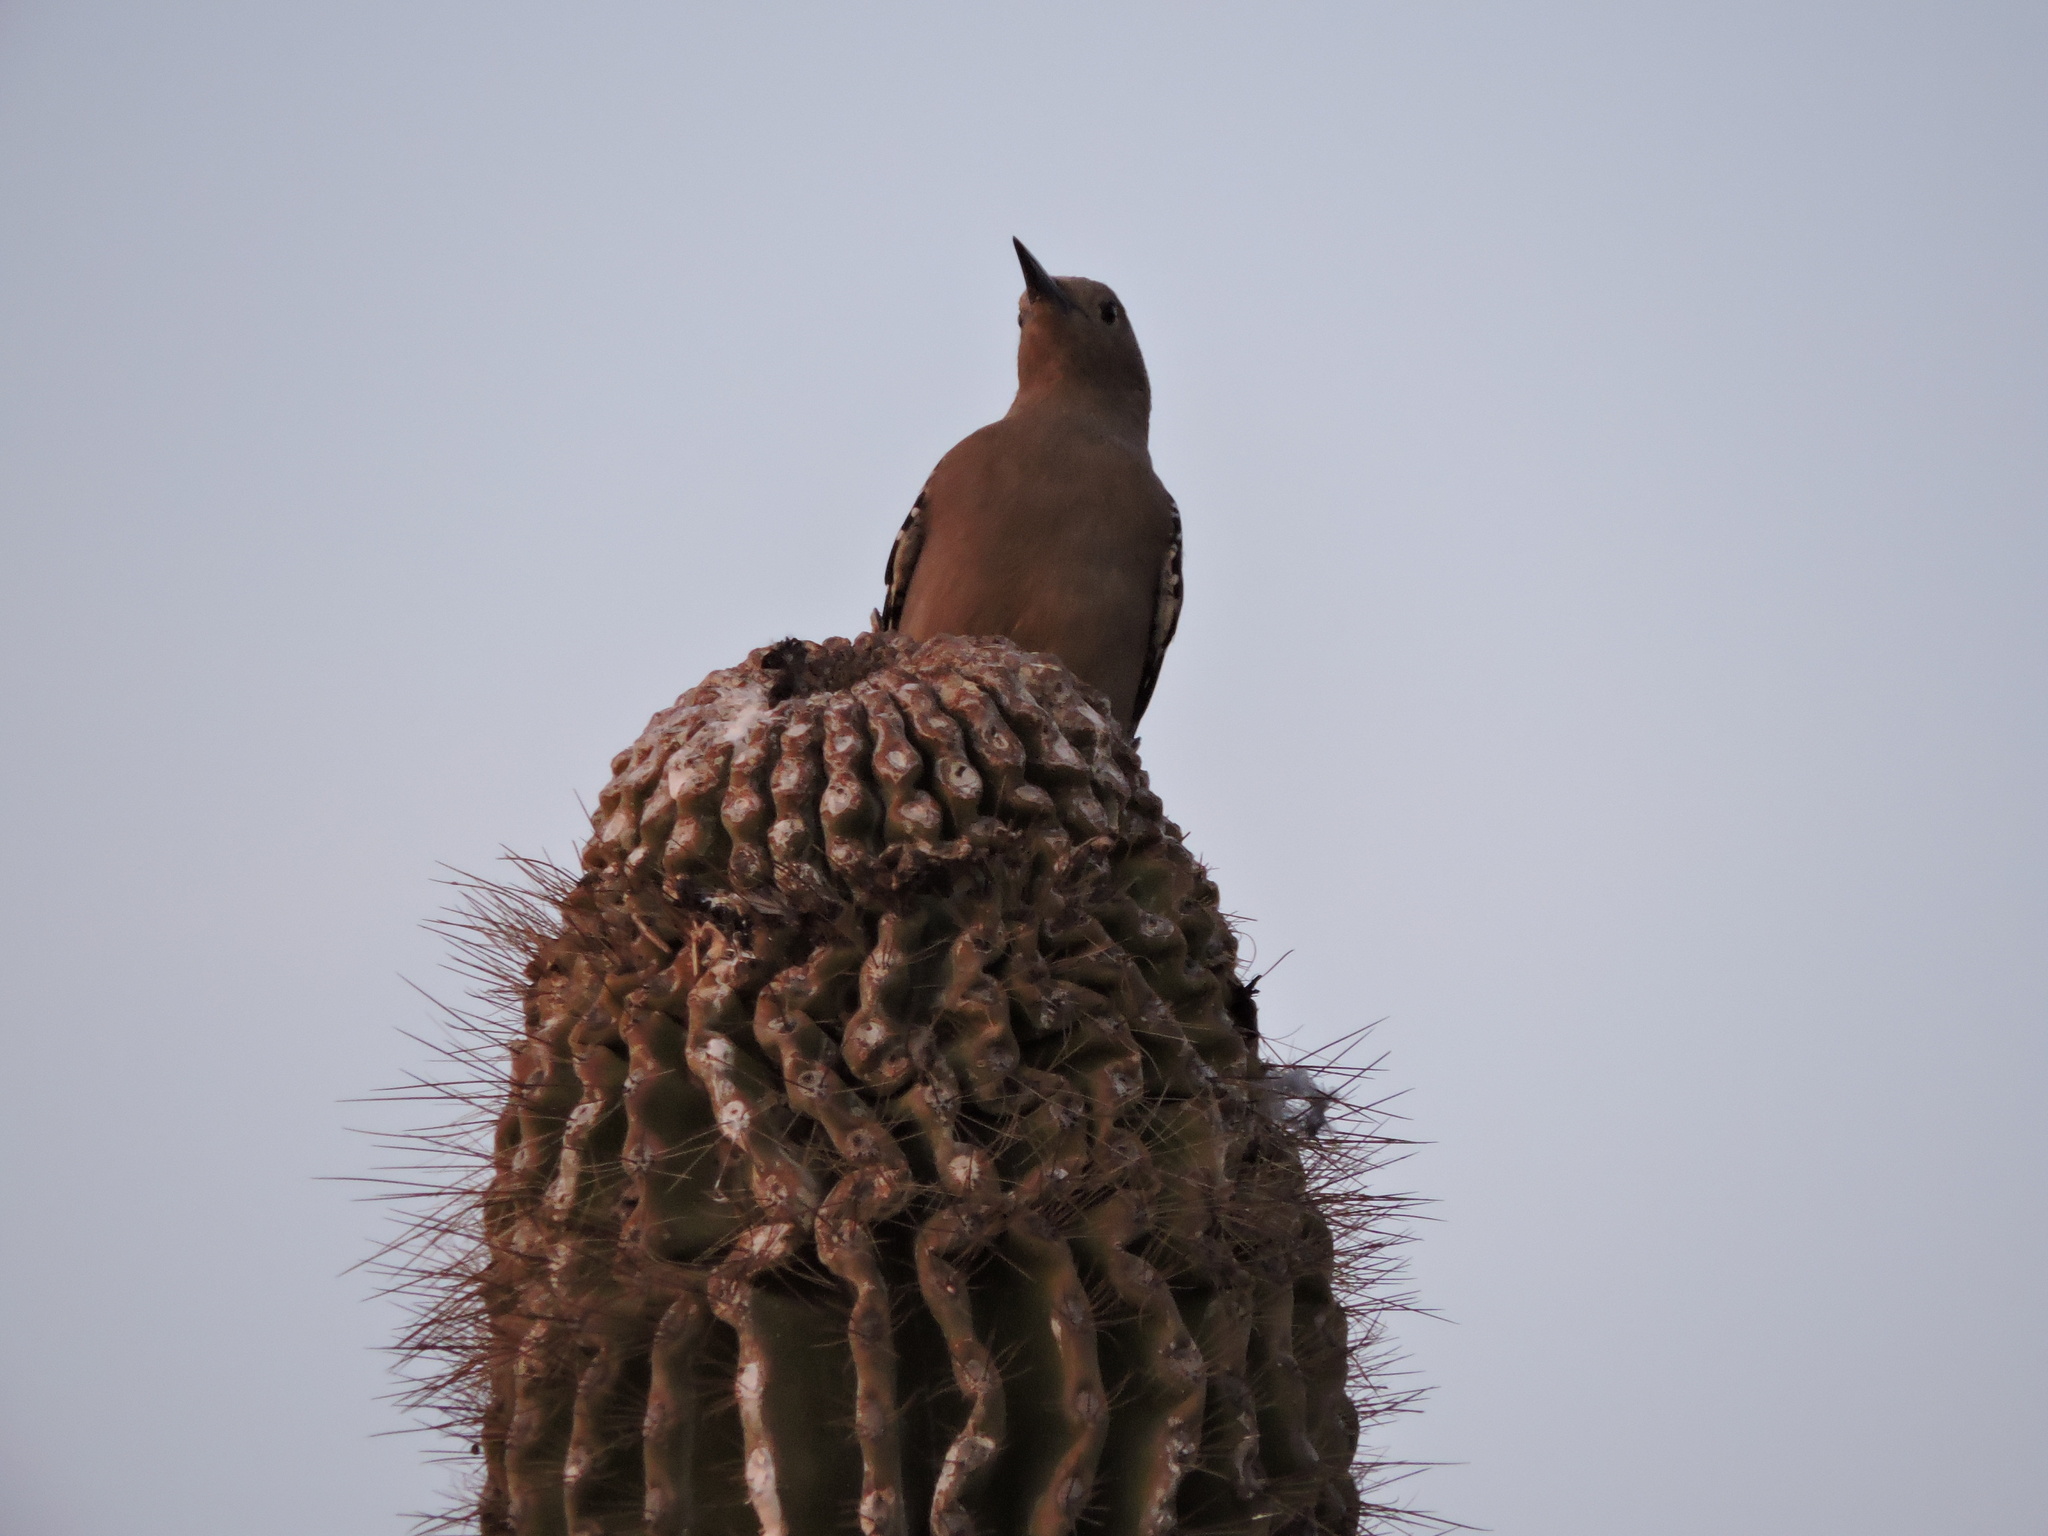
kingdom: Animalia
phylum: Chordata
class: Aves
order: Piciformes
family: Picidae
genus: Melanerpes
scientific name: Melanerpes uropygialis
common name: Gila woodpecker
